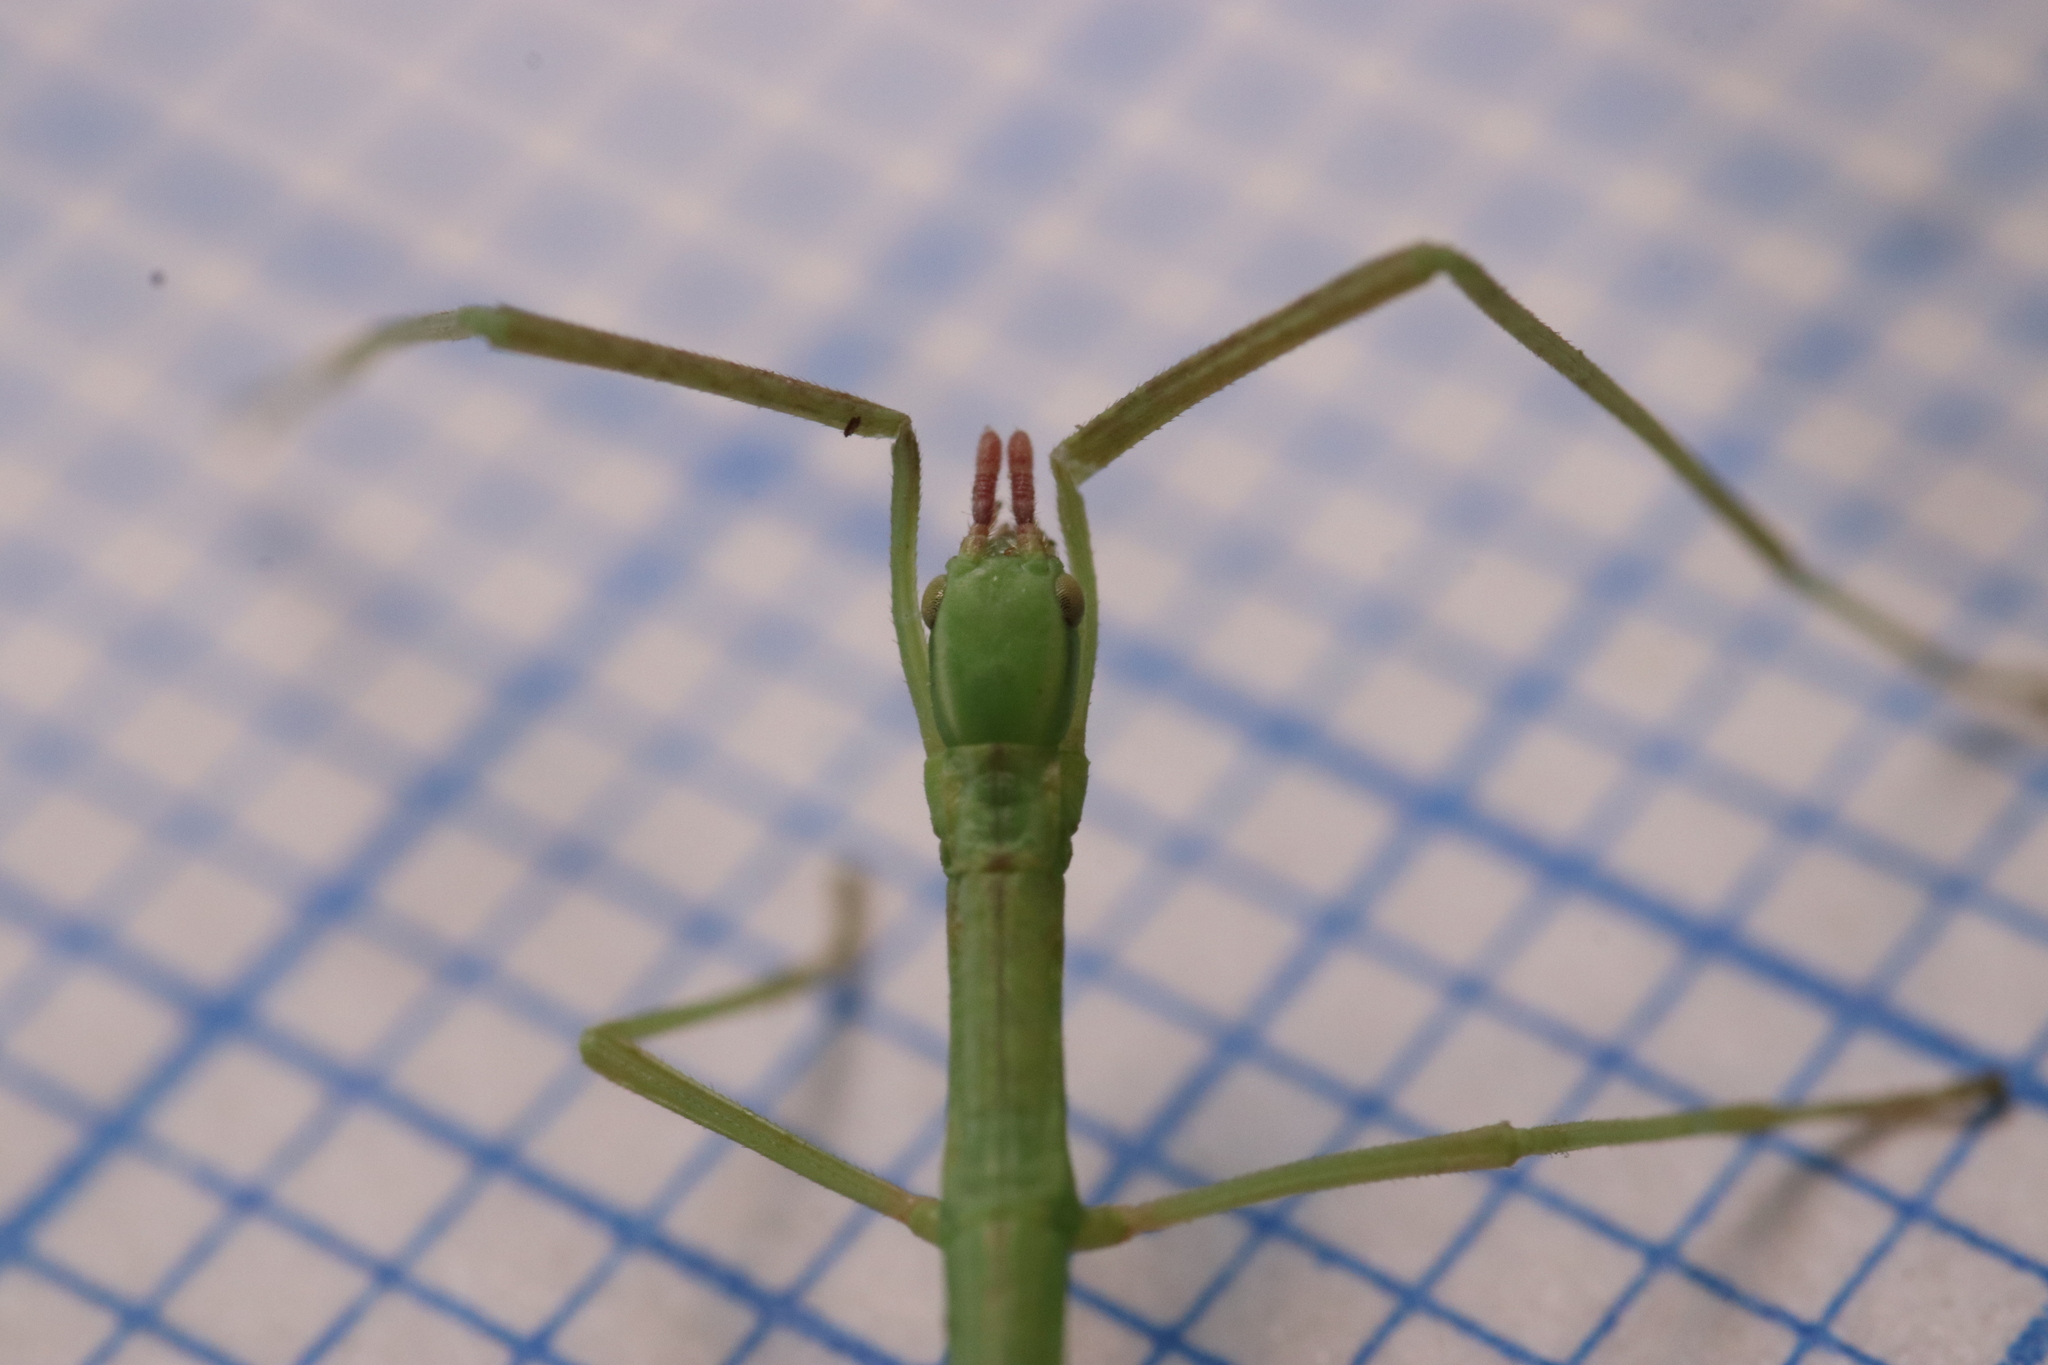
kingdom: Animalia
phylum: Arthropoda
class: Insecta
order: Phasmida
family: Bacillidae
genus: Pijnackeria
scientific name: Pijnackeria masettii
